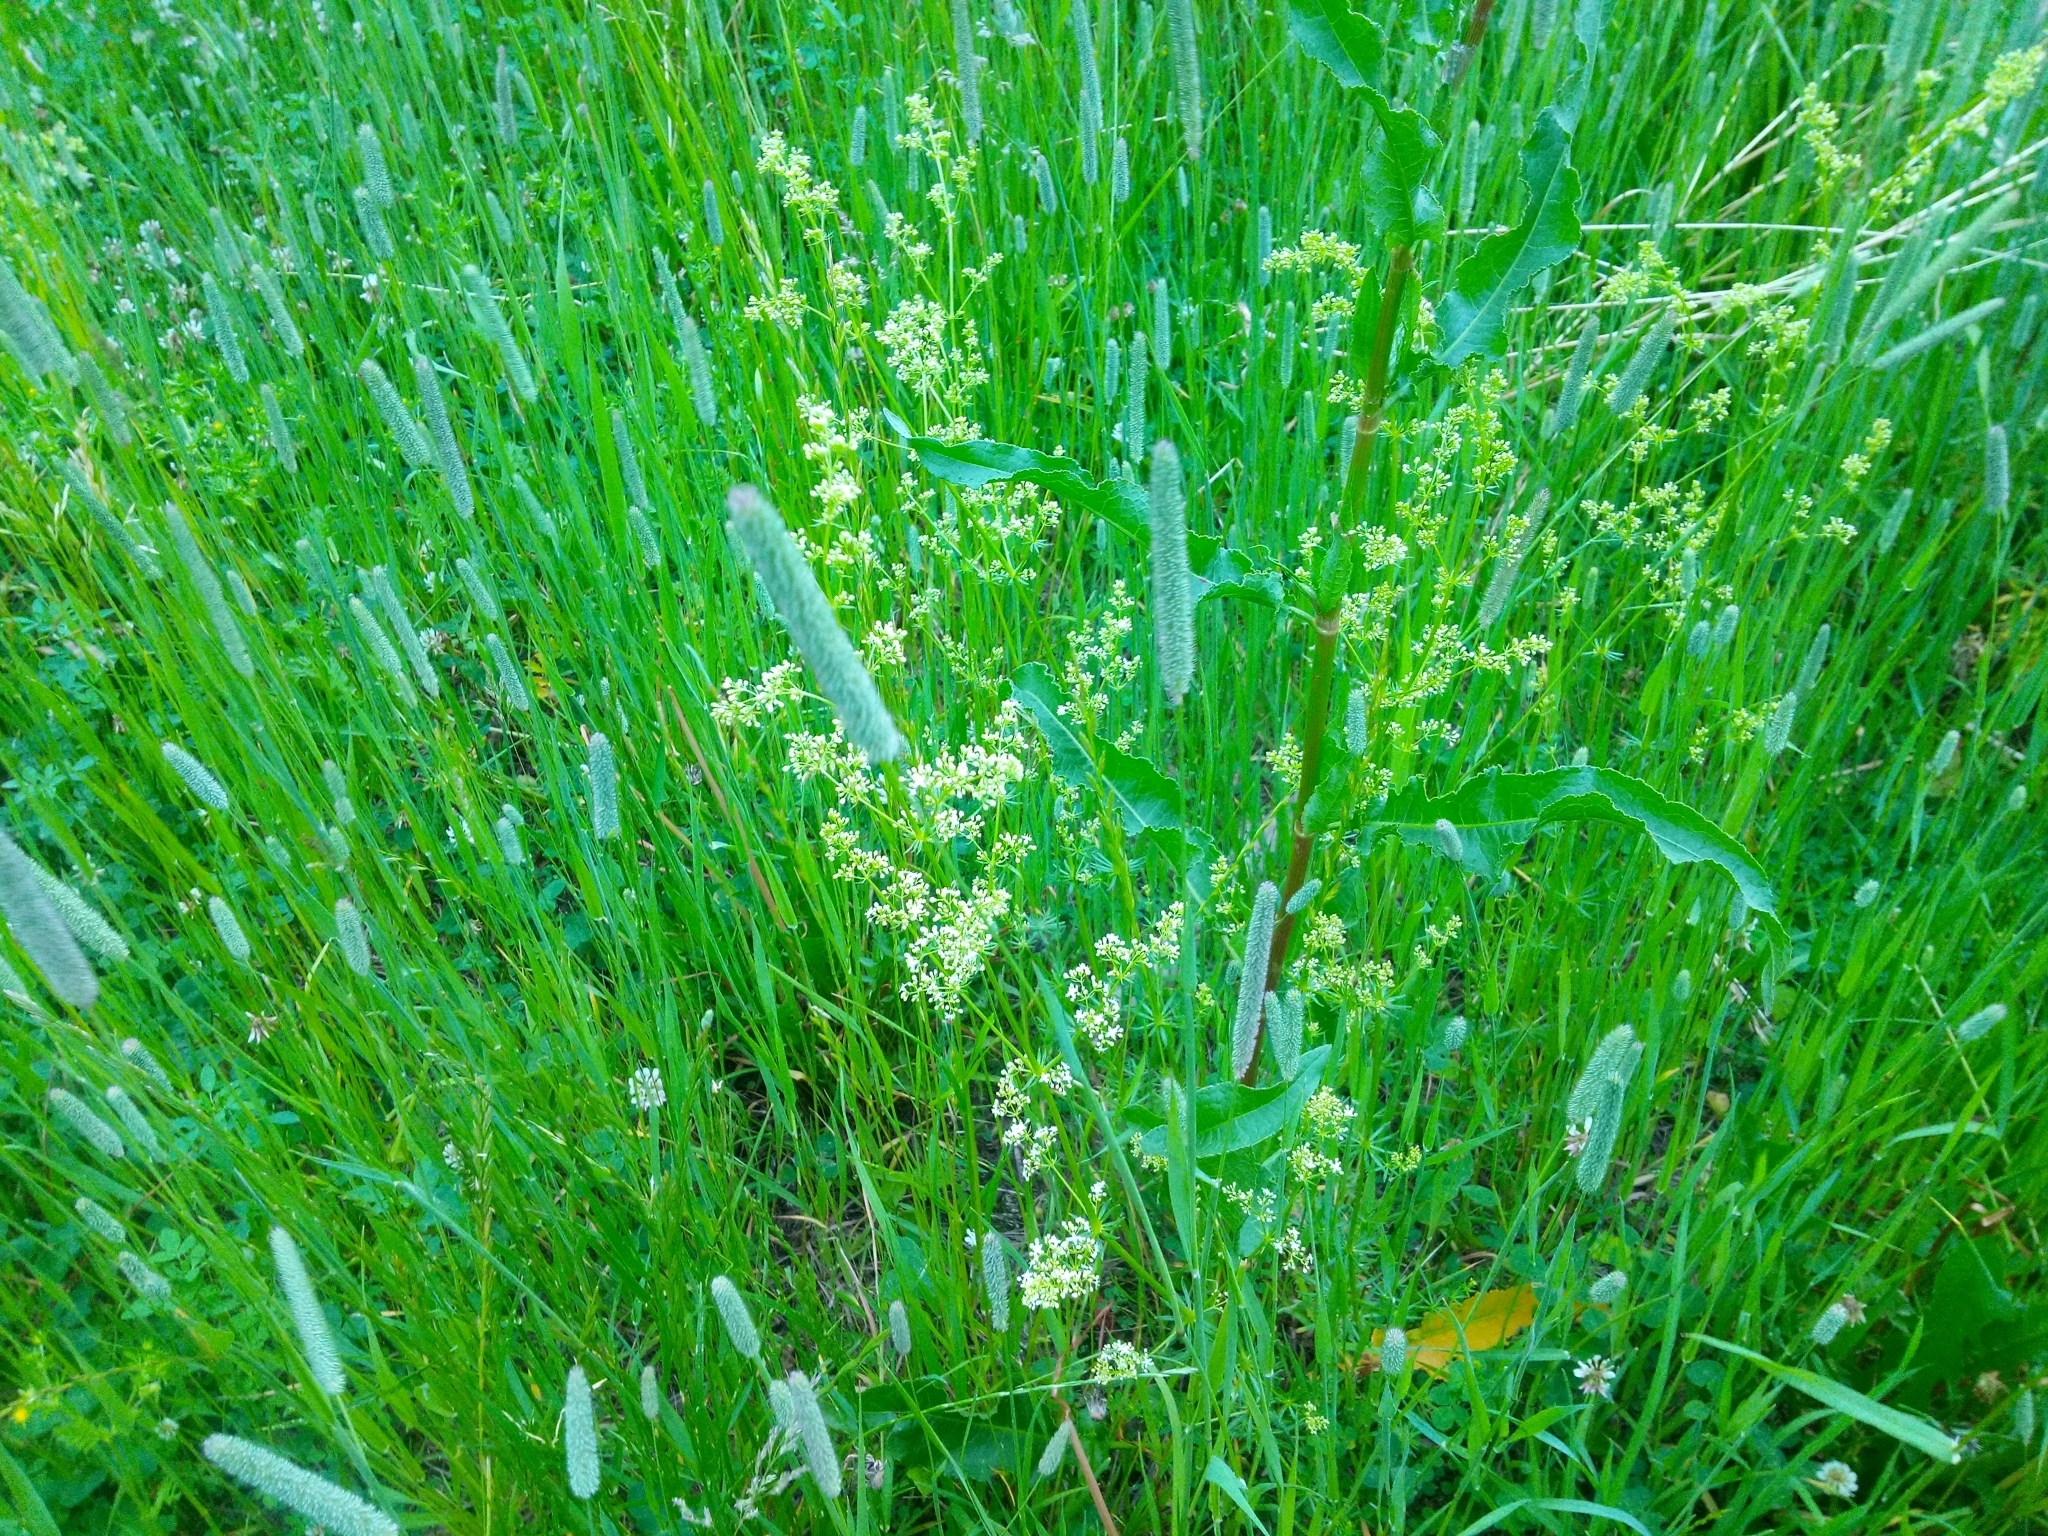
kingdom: Plantae
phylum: Tracheophyta
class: Magnoliopsida
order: Gentianales
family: Rubiaceae
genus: Galium
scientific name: Galium mollugo
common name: Hedge bedstraw
